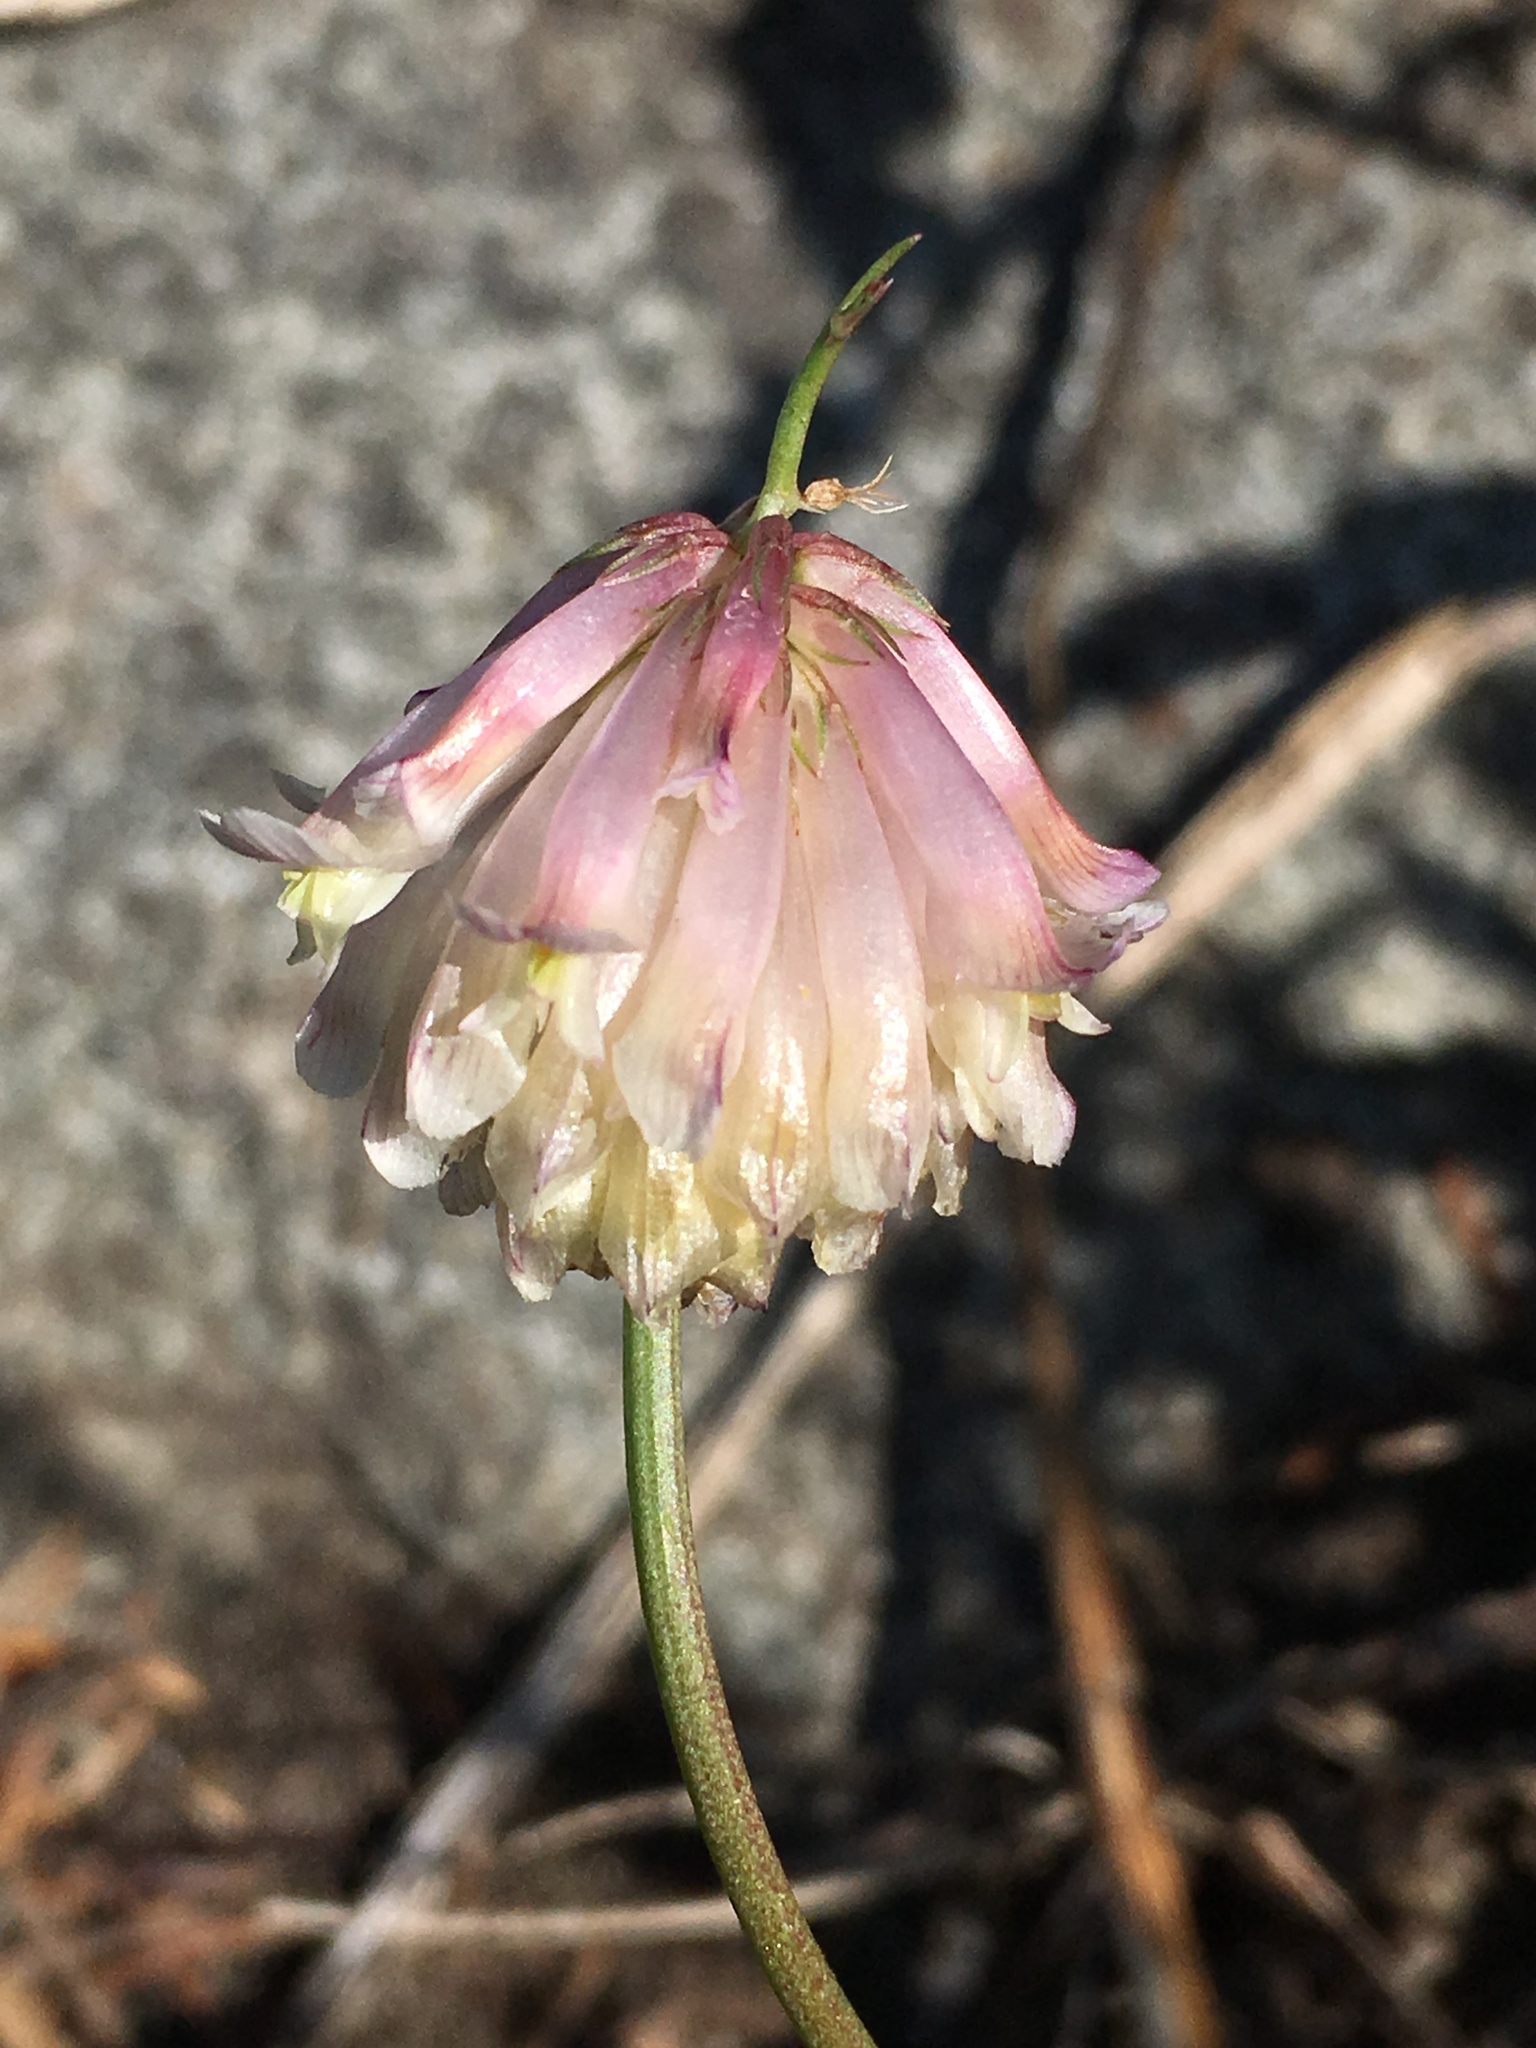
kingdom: Plantae
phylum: Tracheophyta
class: Magnoliopsida
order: Fabales
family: Fabaceae
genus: Trifolium
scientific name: Trifolium productum
